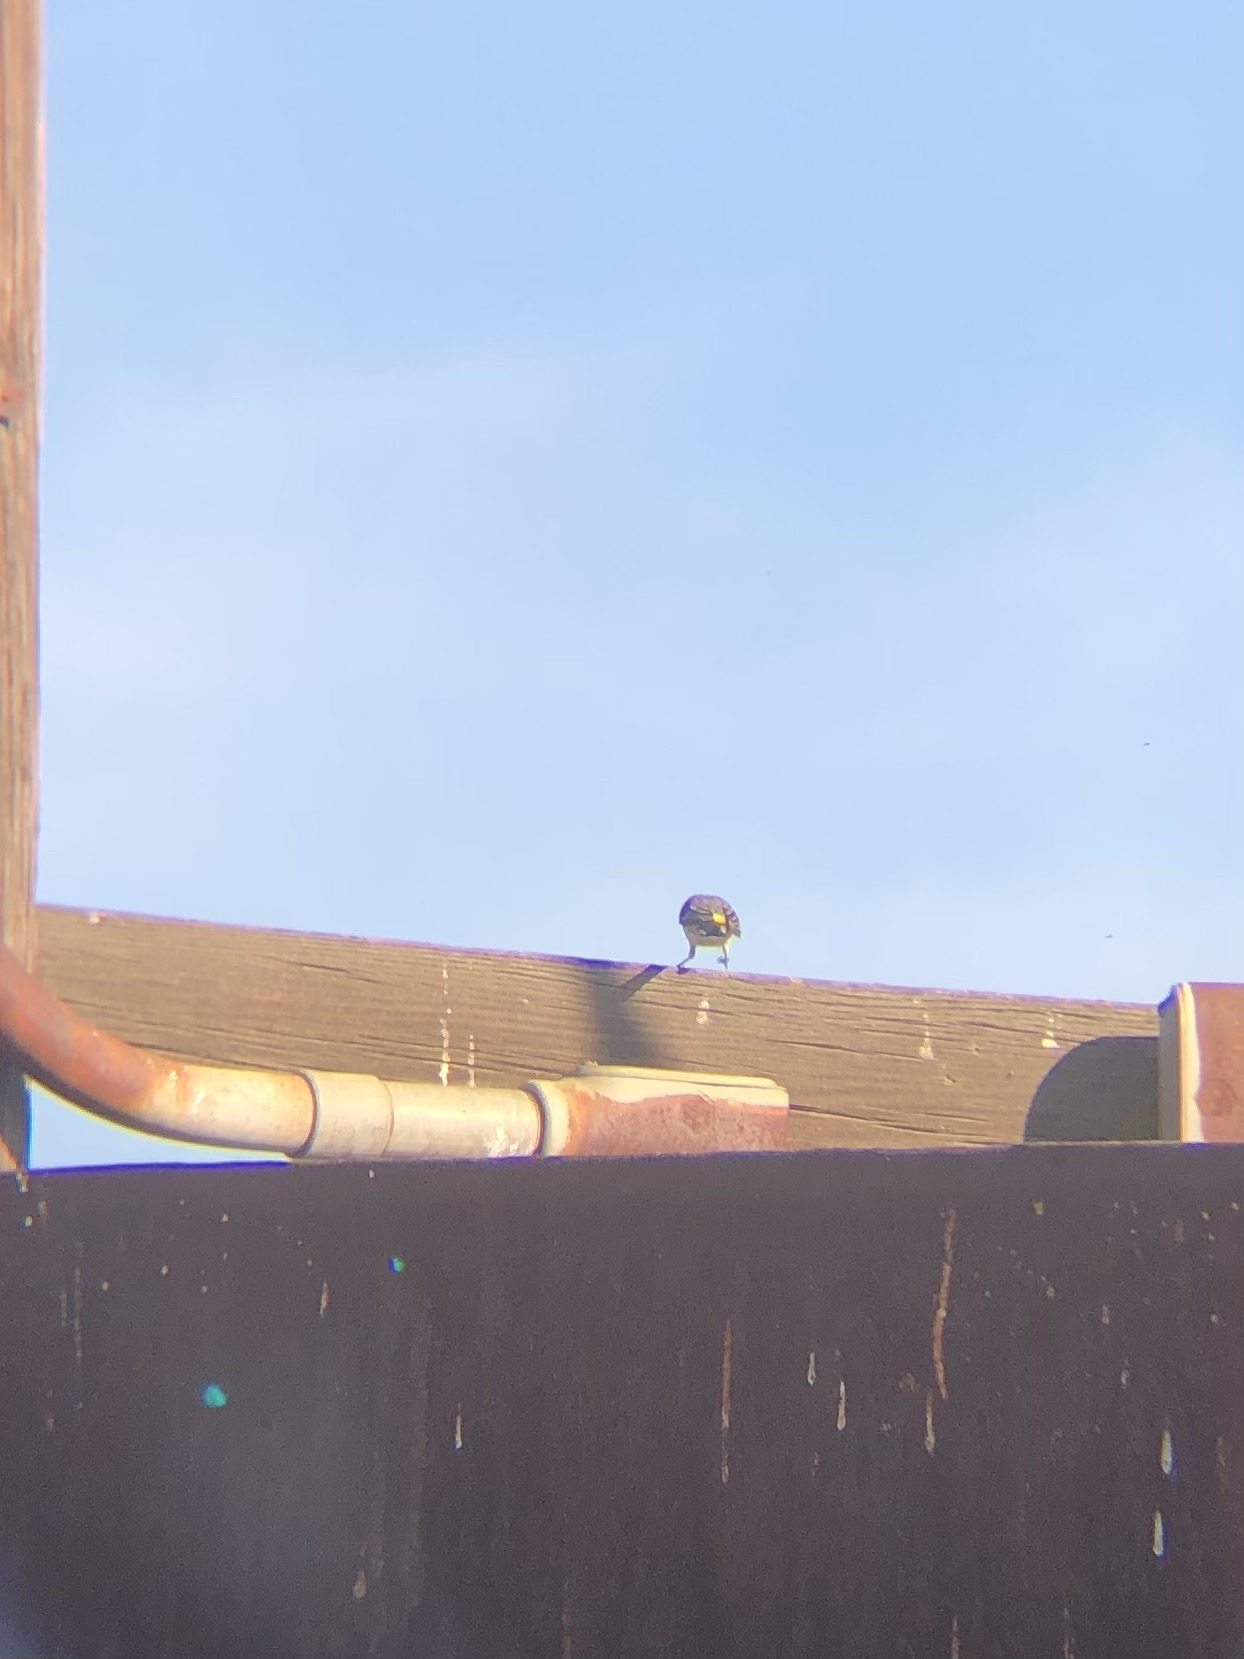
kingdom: Animalia
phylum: Chordata
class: Aves
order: Passeriformes
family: Parulidae
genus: Setophaga
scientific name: Setophaga coronata
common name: Myrtle warbler
